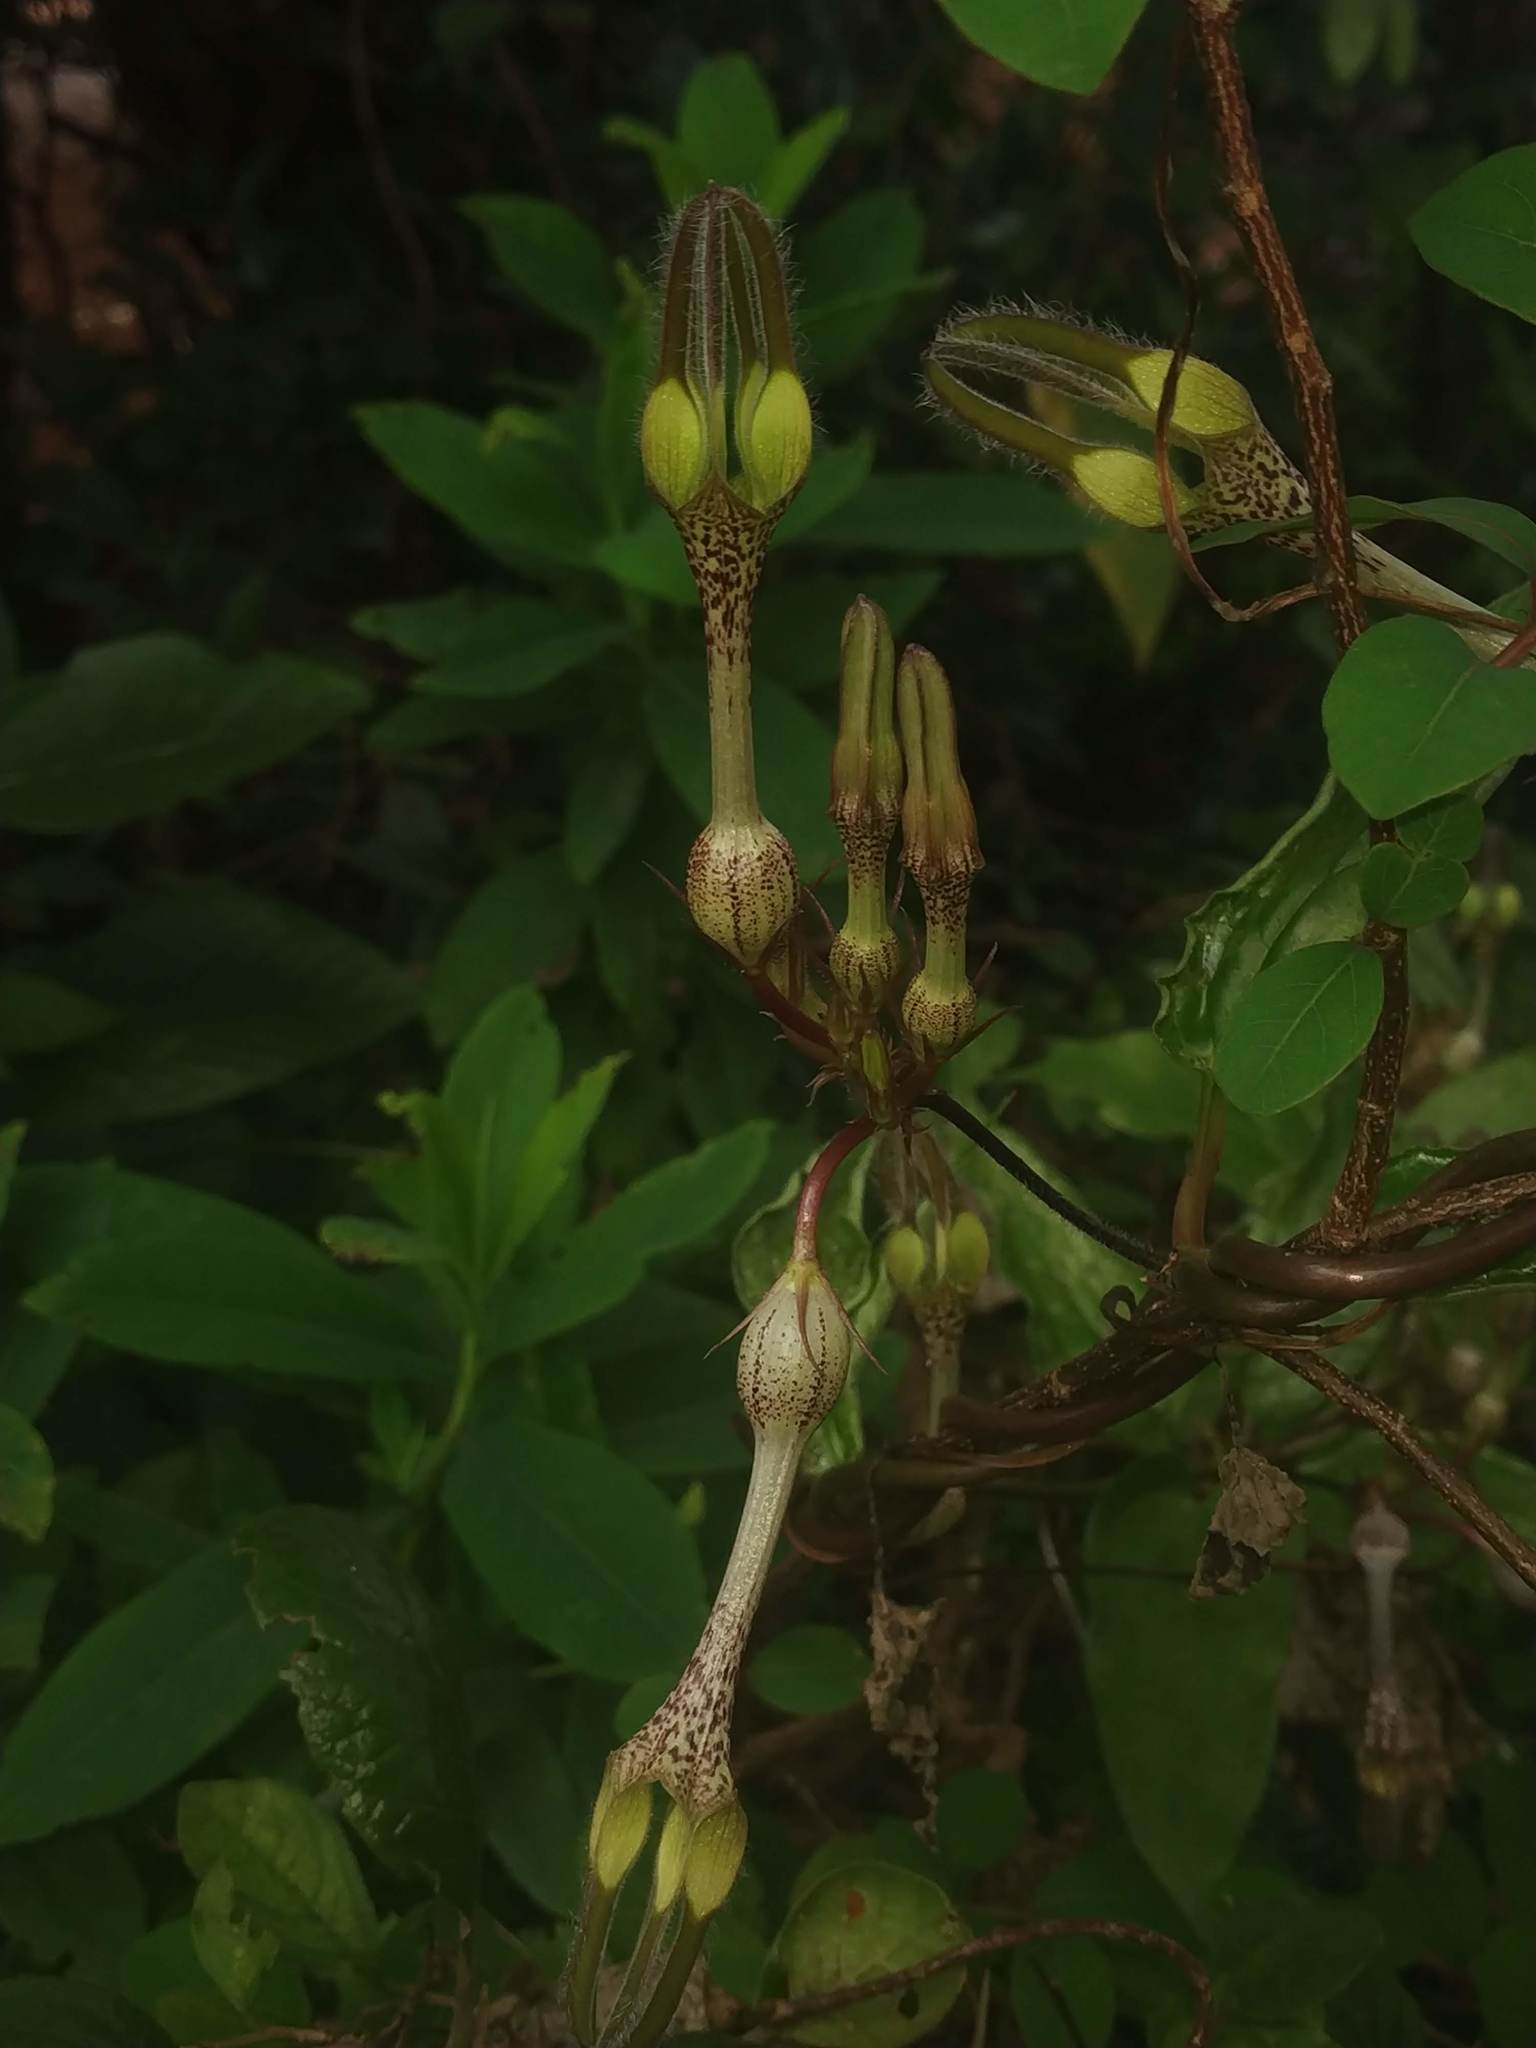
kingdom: Plantae
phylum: Tracheophyta
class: Magnoliopsida
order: Gentianales
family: Apocynaceae
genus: Ceropegia
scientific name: Ceropegia vincifolia
